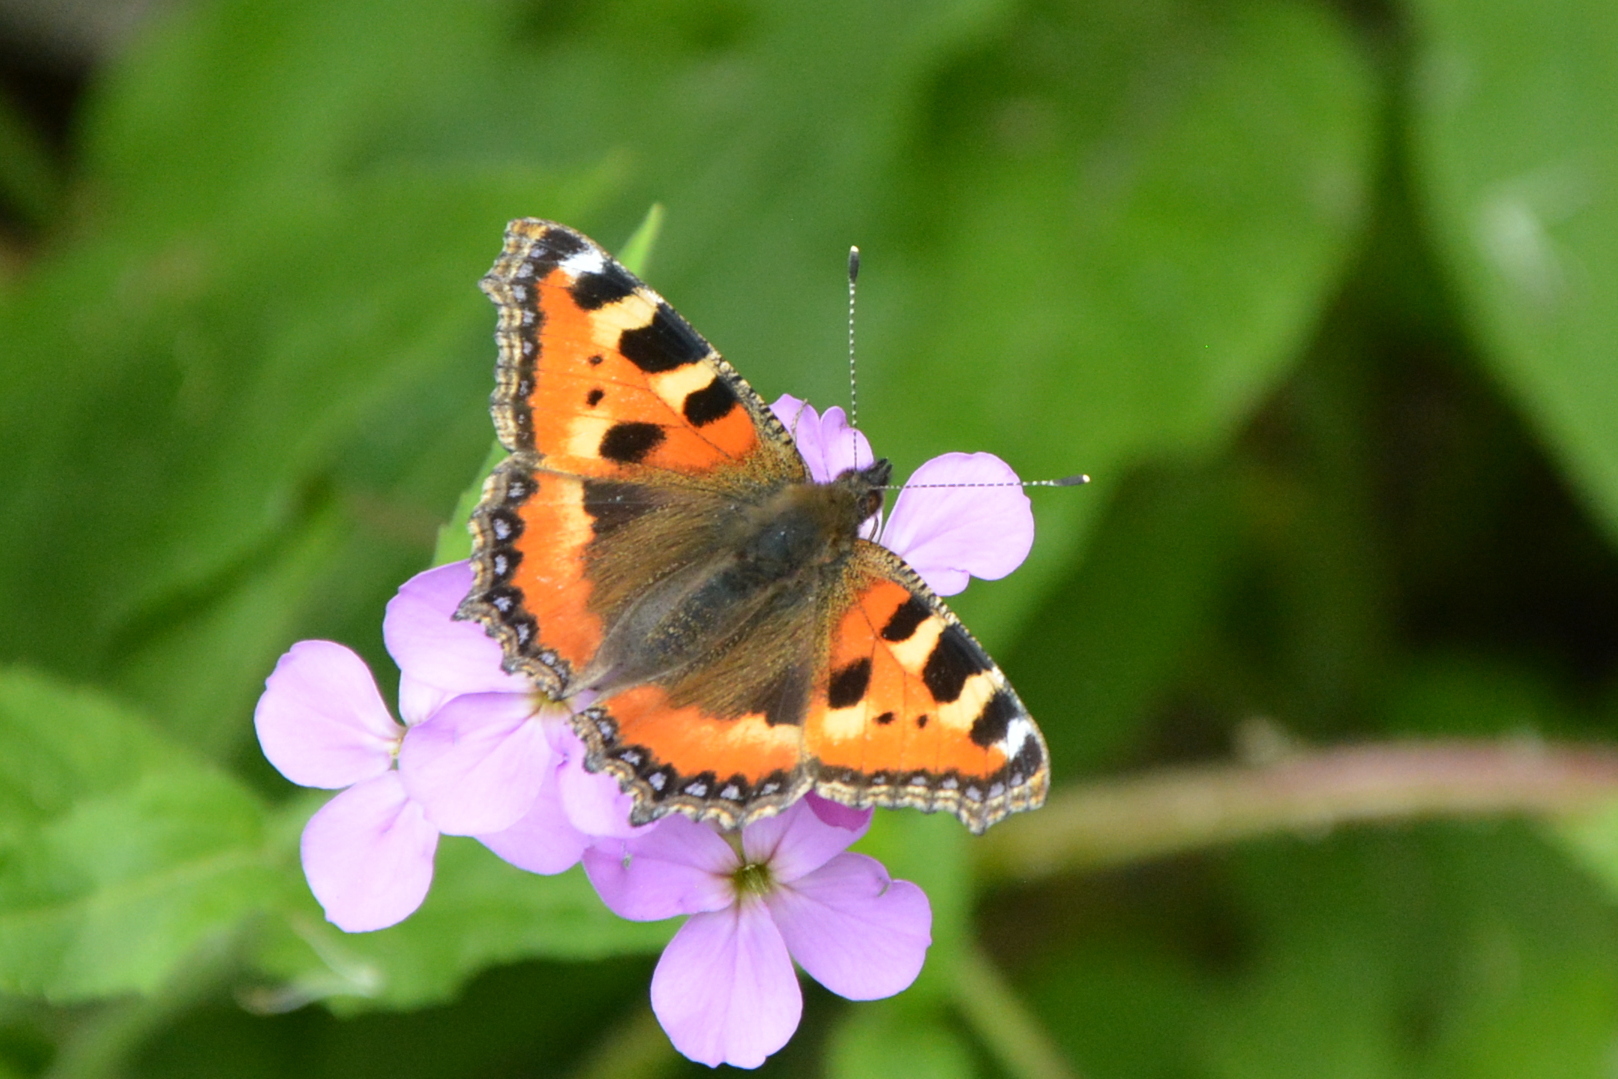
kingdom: Animalia
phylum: Arthropoda
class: Insecta
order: Lepidoptera
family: Nymphalidae
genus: Aglais
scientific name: Aglais urticae
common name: Small tortoiseshell
